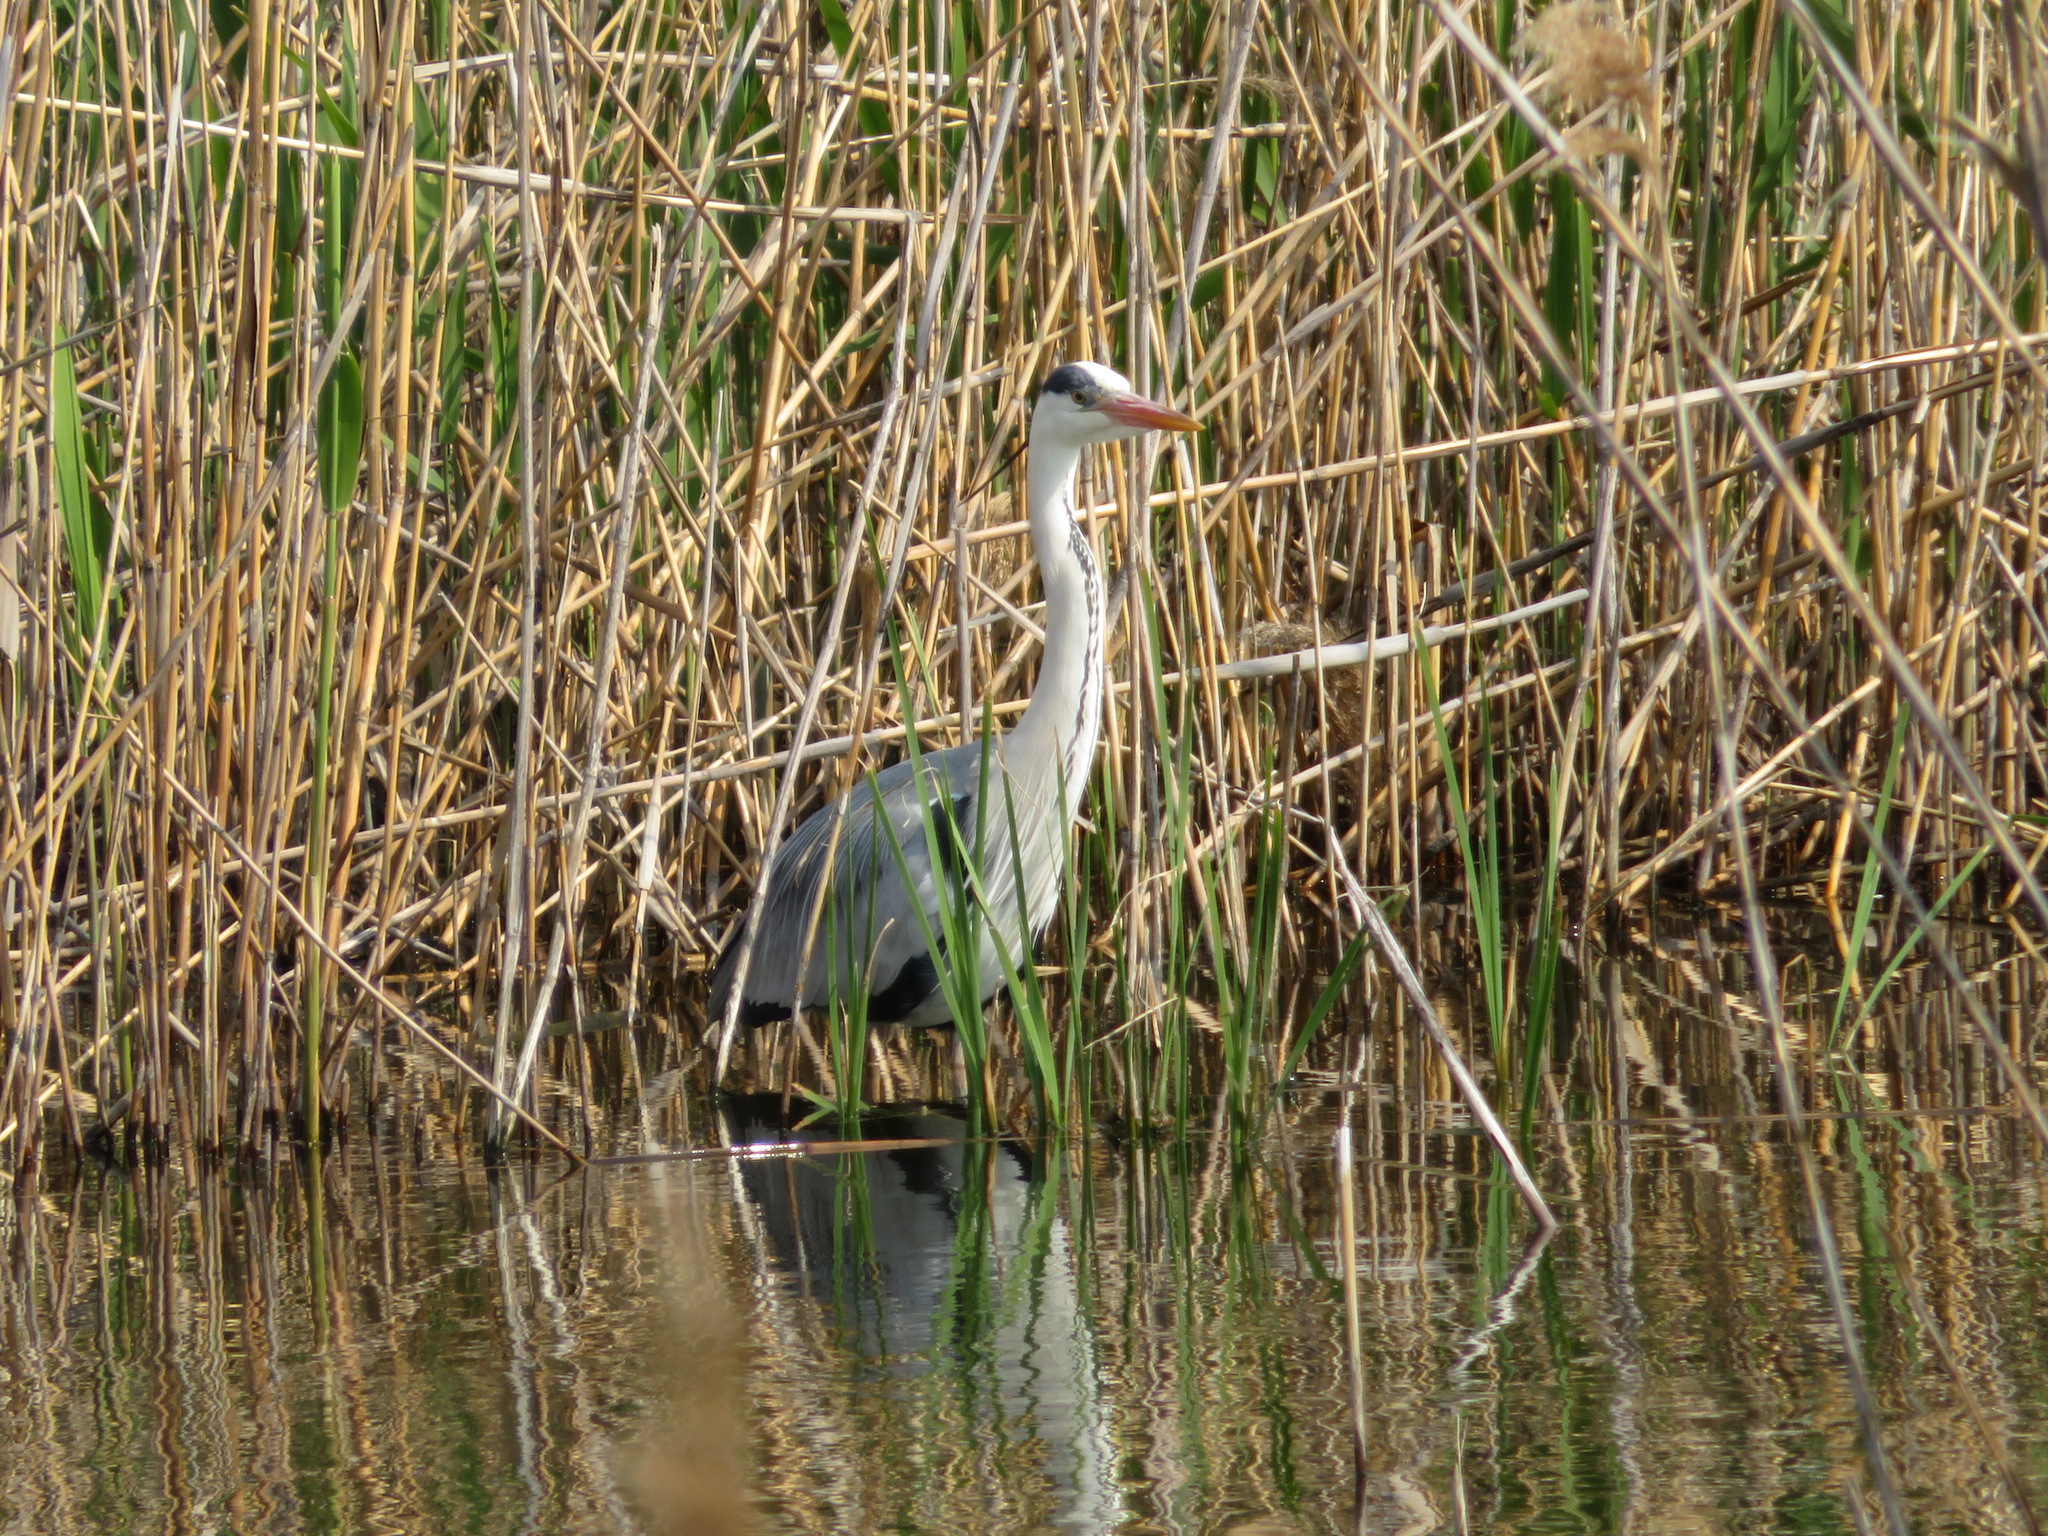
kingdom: Animalia
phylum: Chordata
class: Aves
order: Pelecaniformes
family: Ardeidae
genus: Ardea
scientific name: Ardea cinerea
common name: Grey heron
